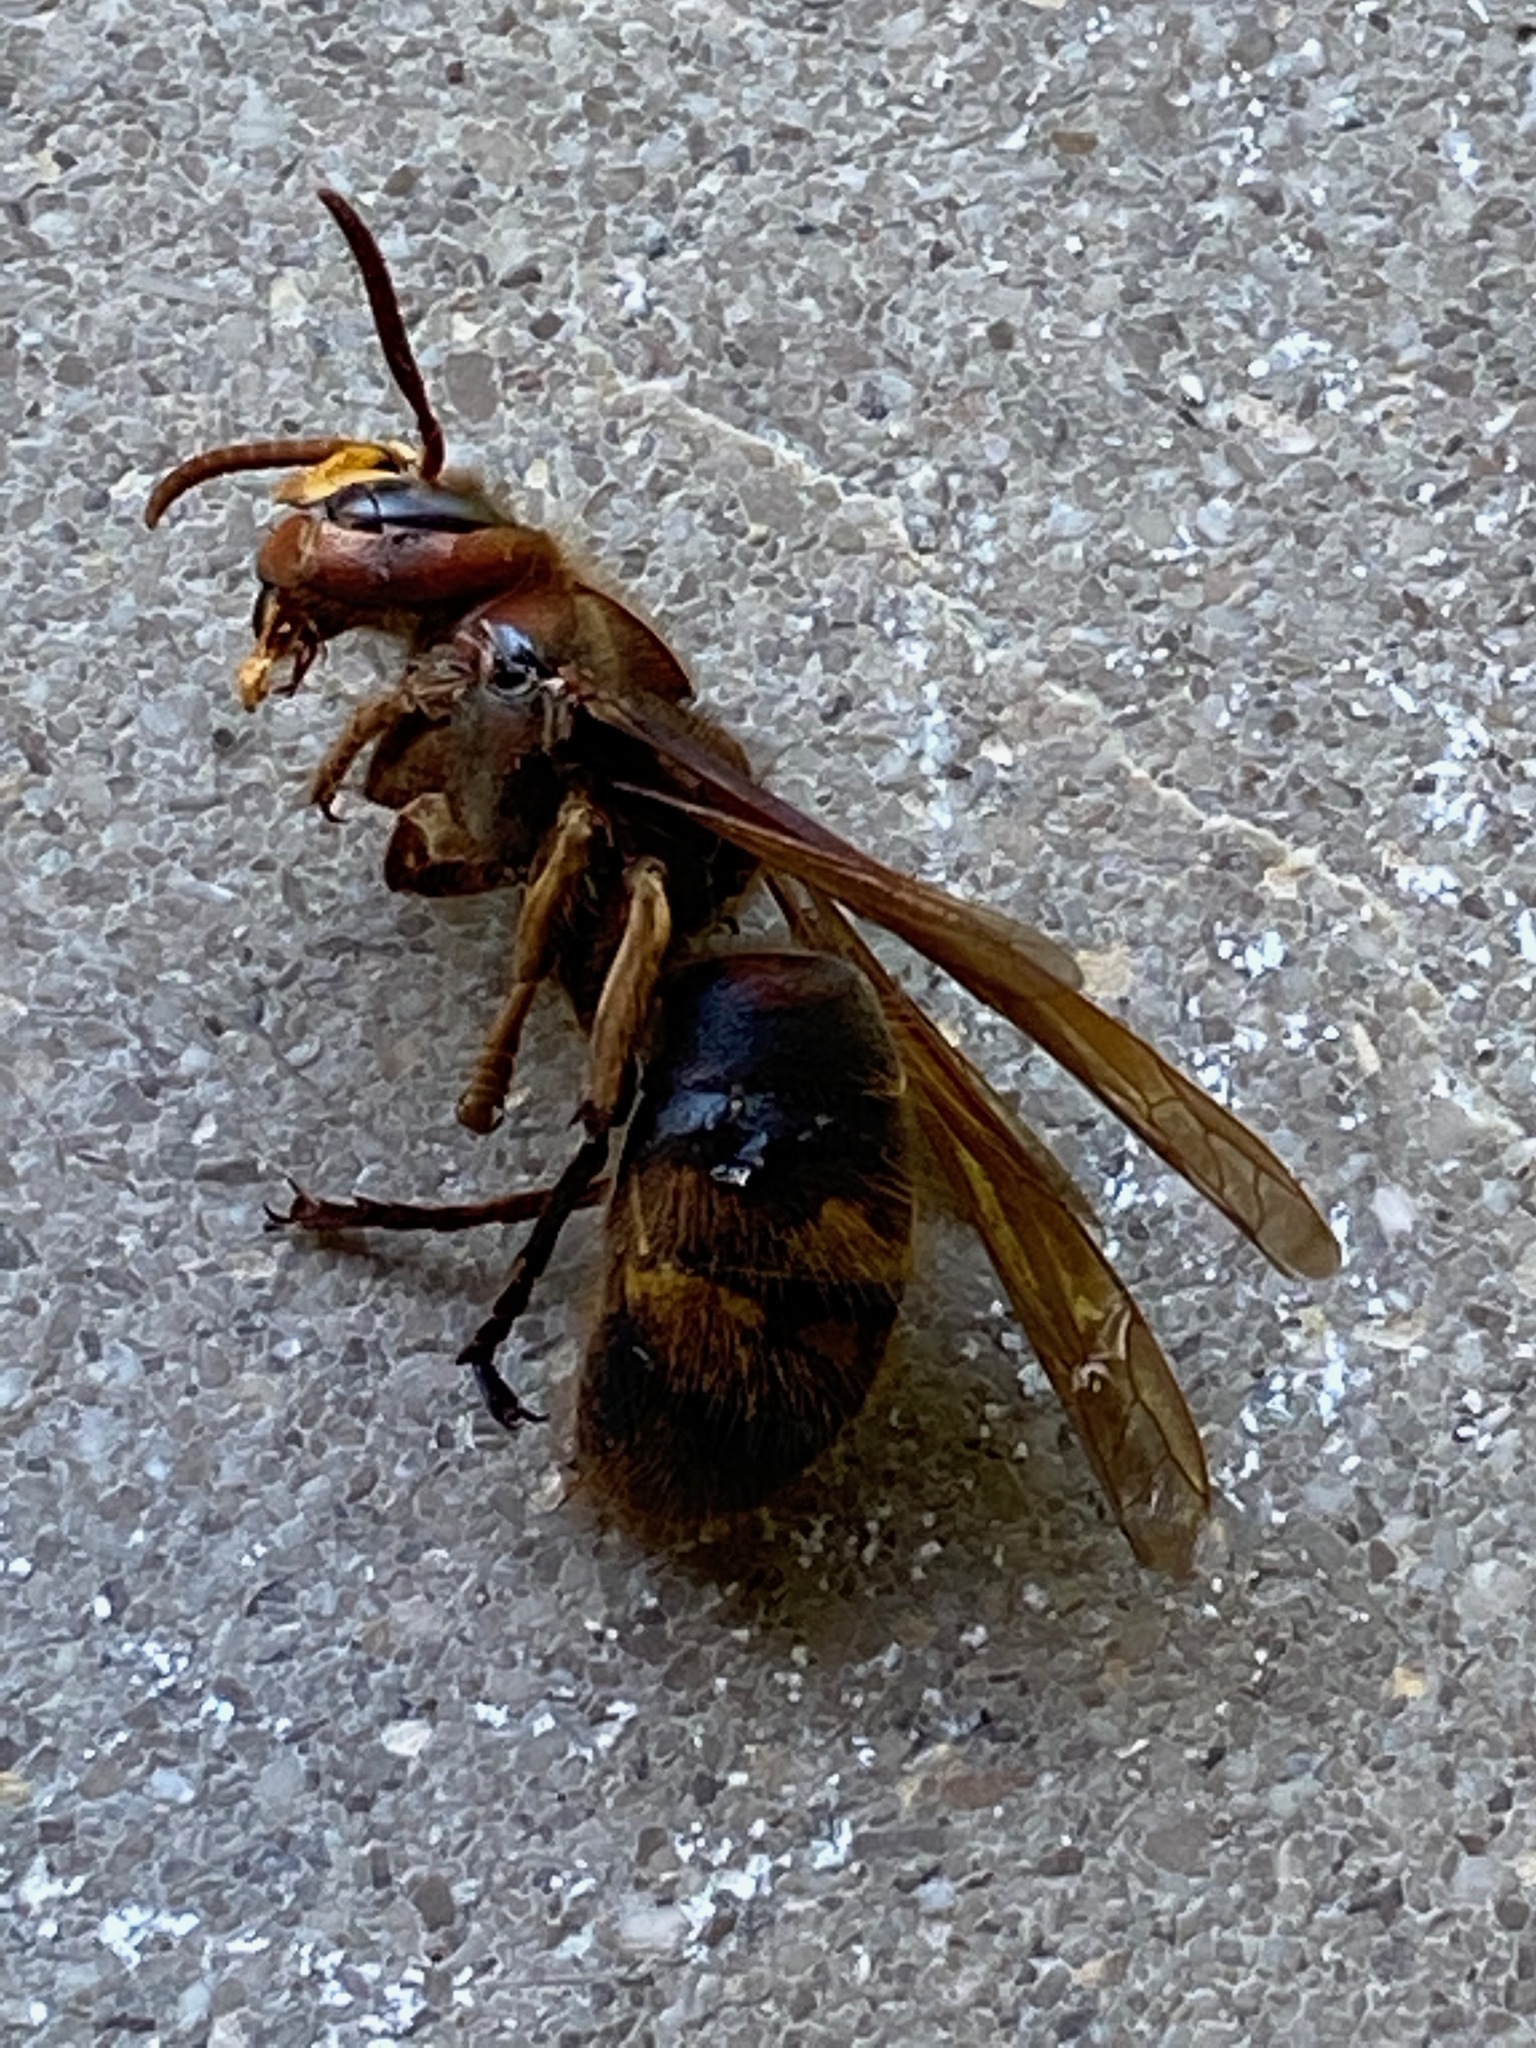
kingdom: Animalia
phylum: Arthropoda
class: Insecta
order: Hymenoptera
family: Vespidae
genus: Vespa
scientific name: Vespa crabro
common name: Hornet
